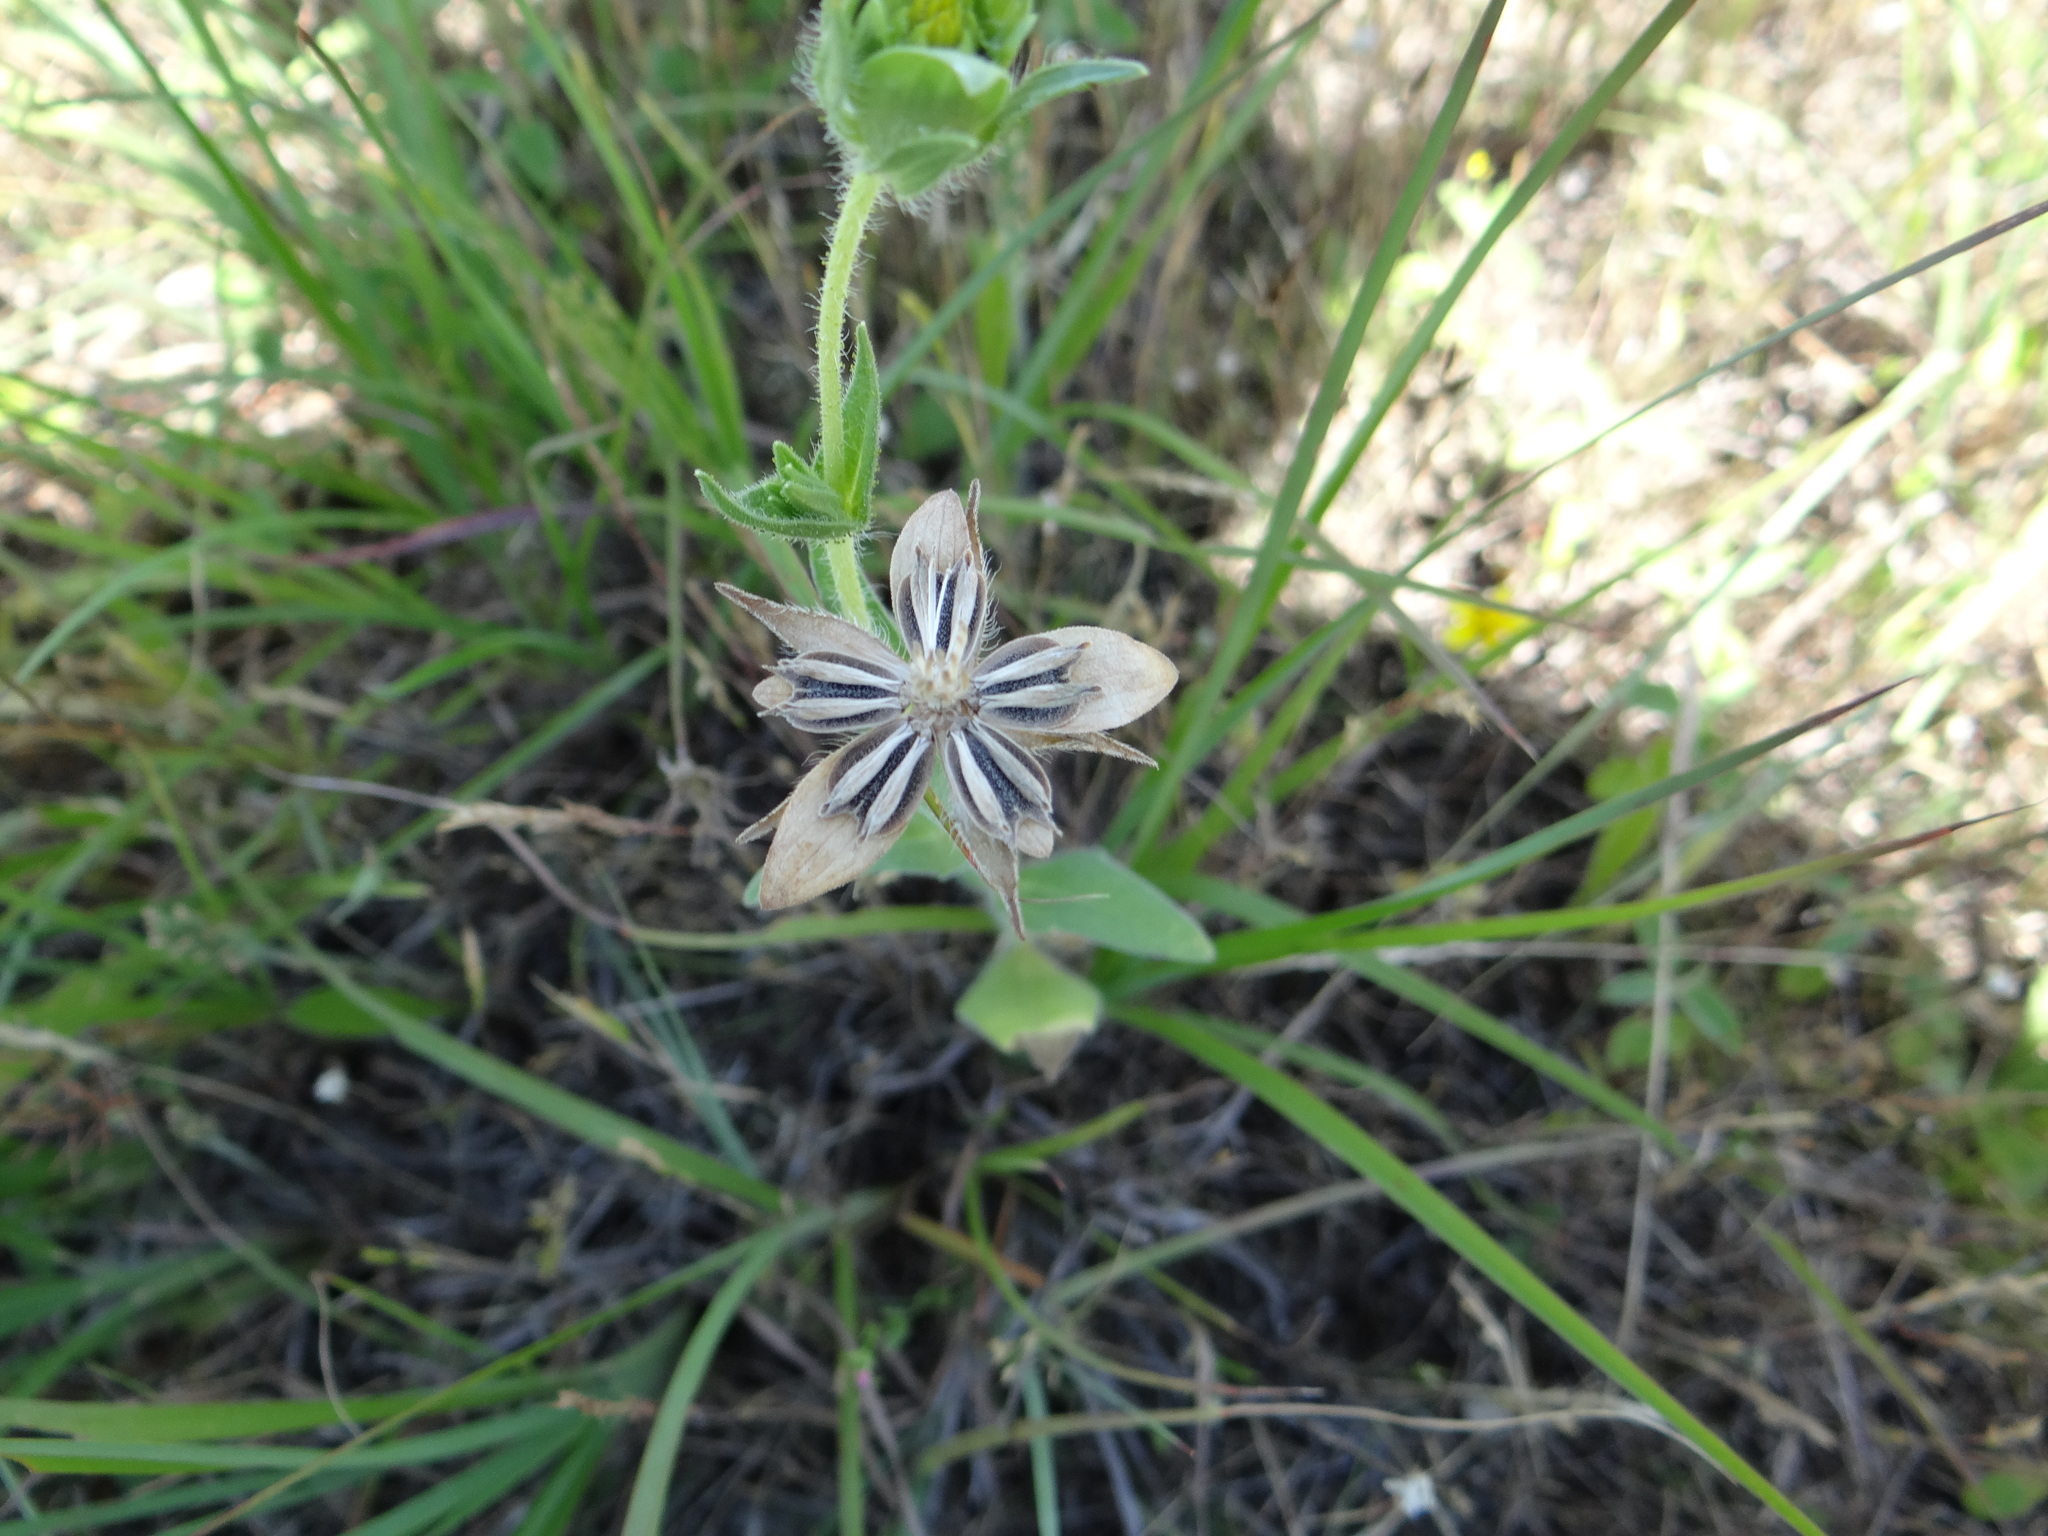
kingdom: Plantae
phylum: Tracheophyta
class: Magnoliopsida
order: Asterales
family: Asteraceae
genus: Lindheimera
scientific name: Lindheimera texana
